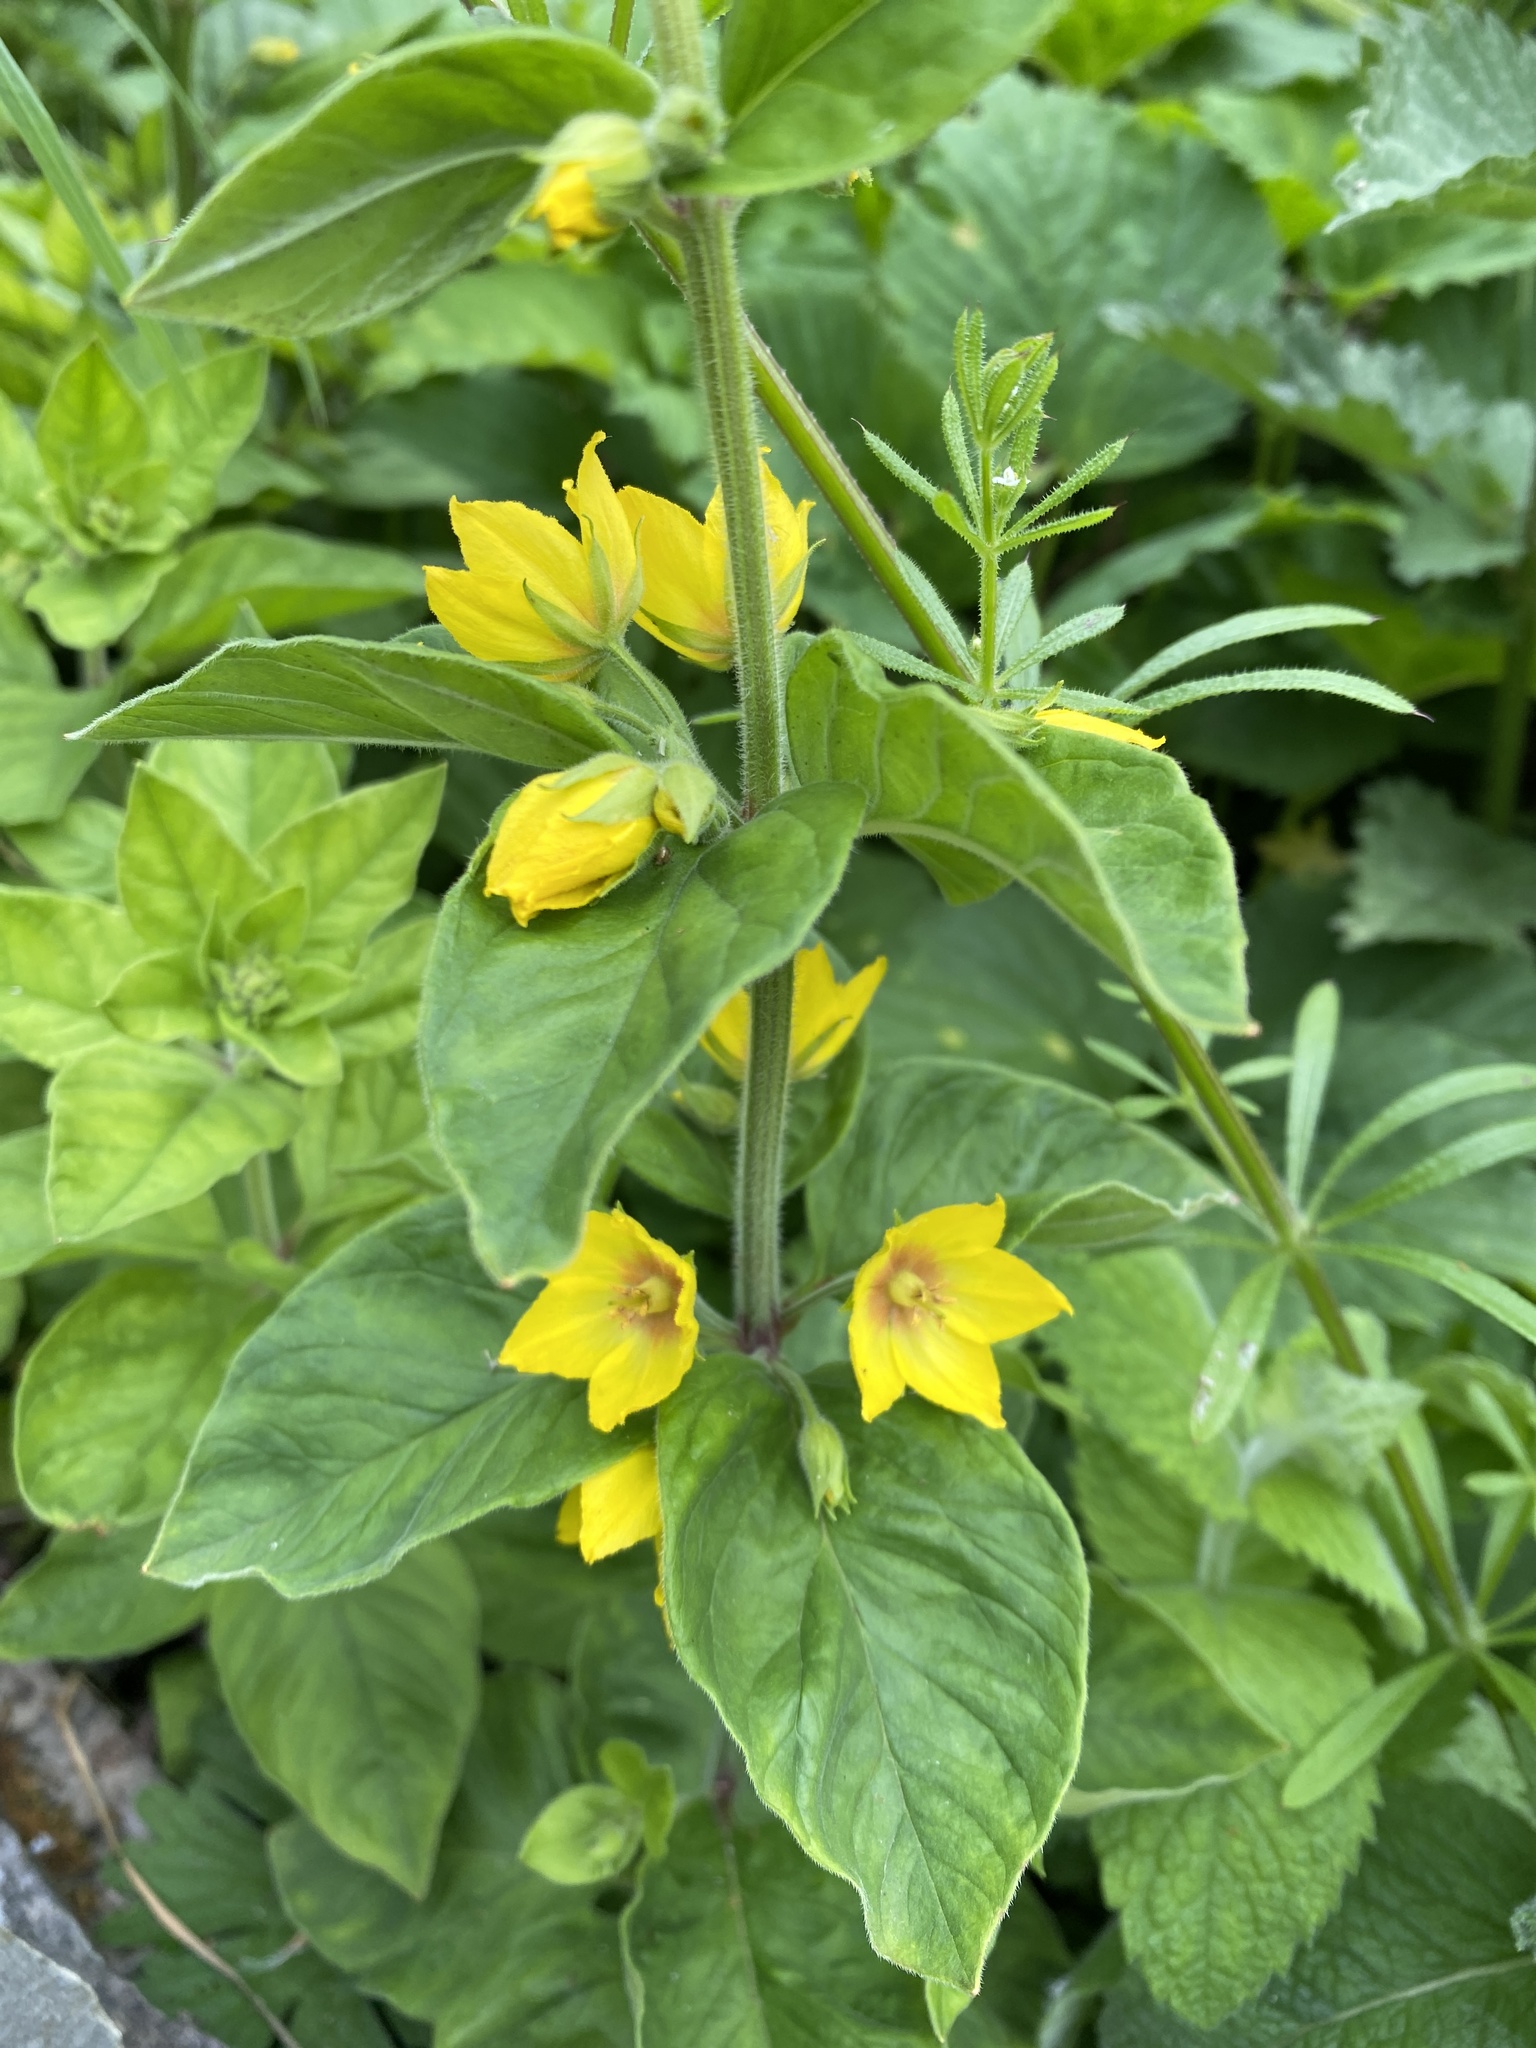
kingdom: Plantae
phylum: Tracheophyta
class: Magnoliopsida
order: Ericales
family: Primulaceae
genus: Lysimachia
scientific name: Lysimachia punctata
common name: Dotted loosestrife
